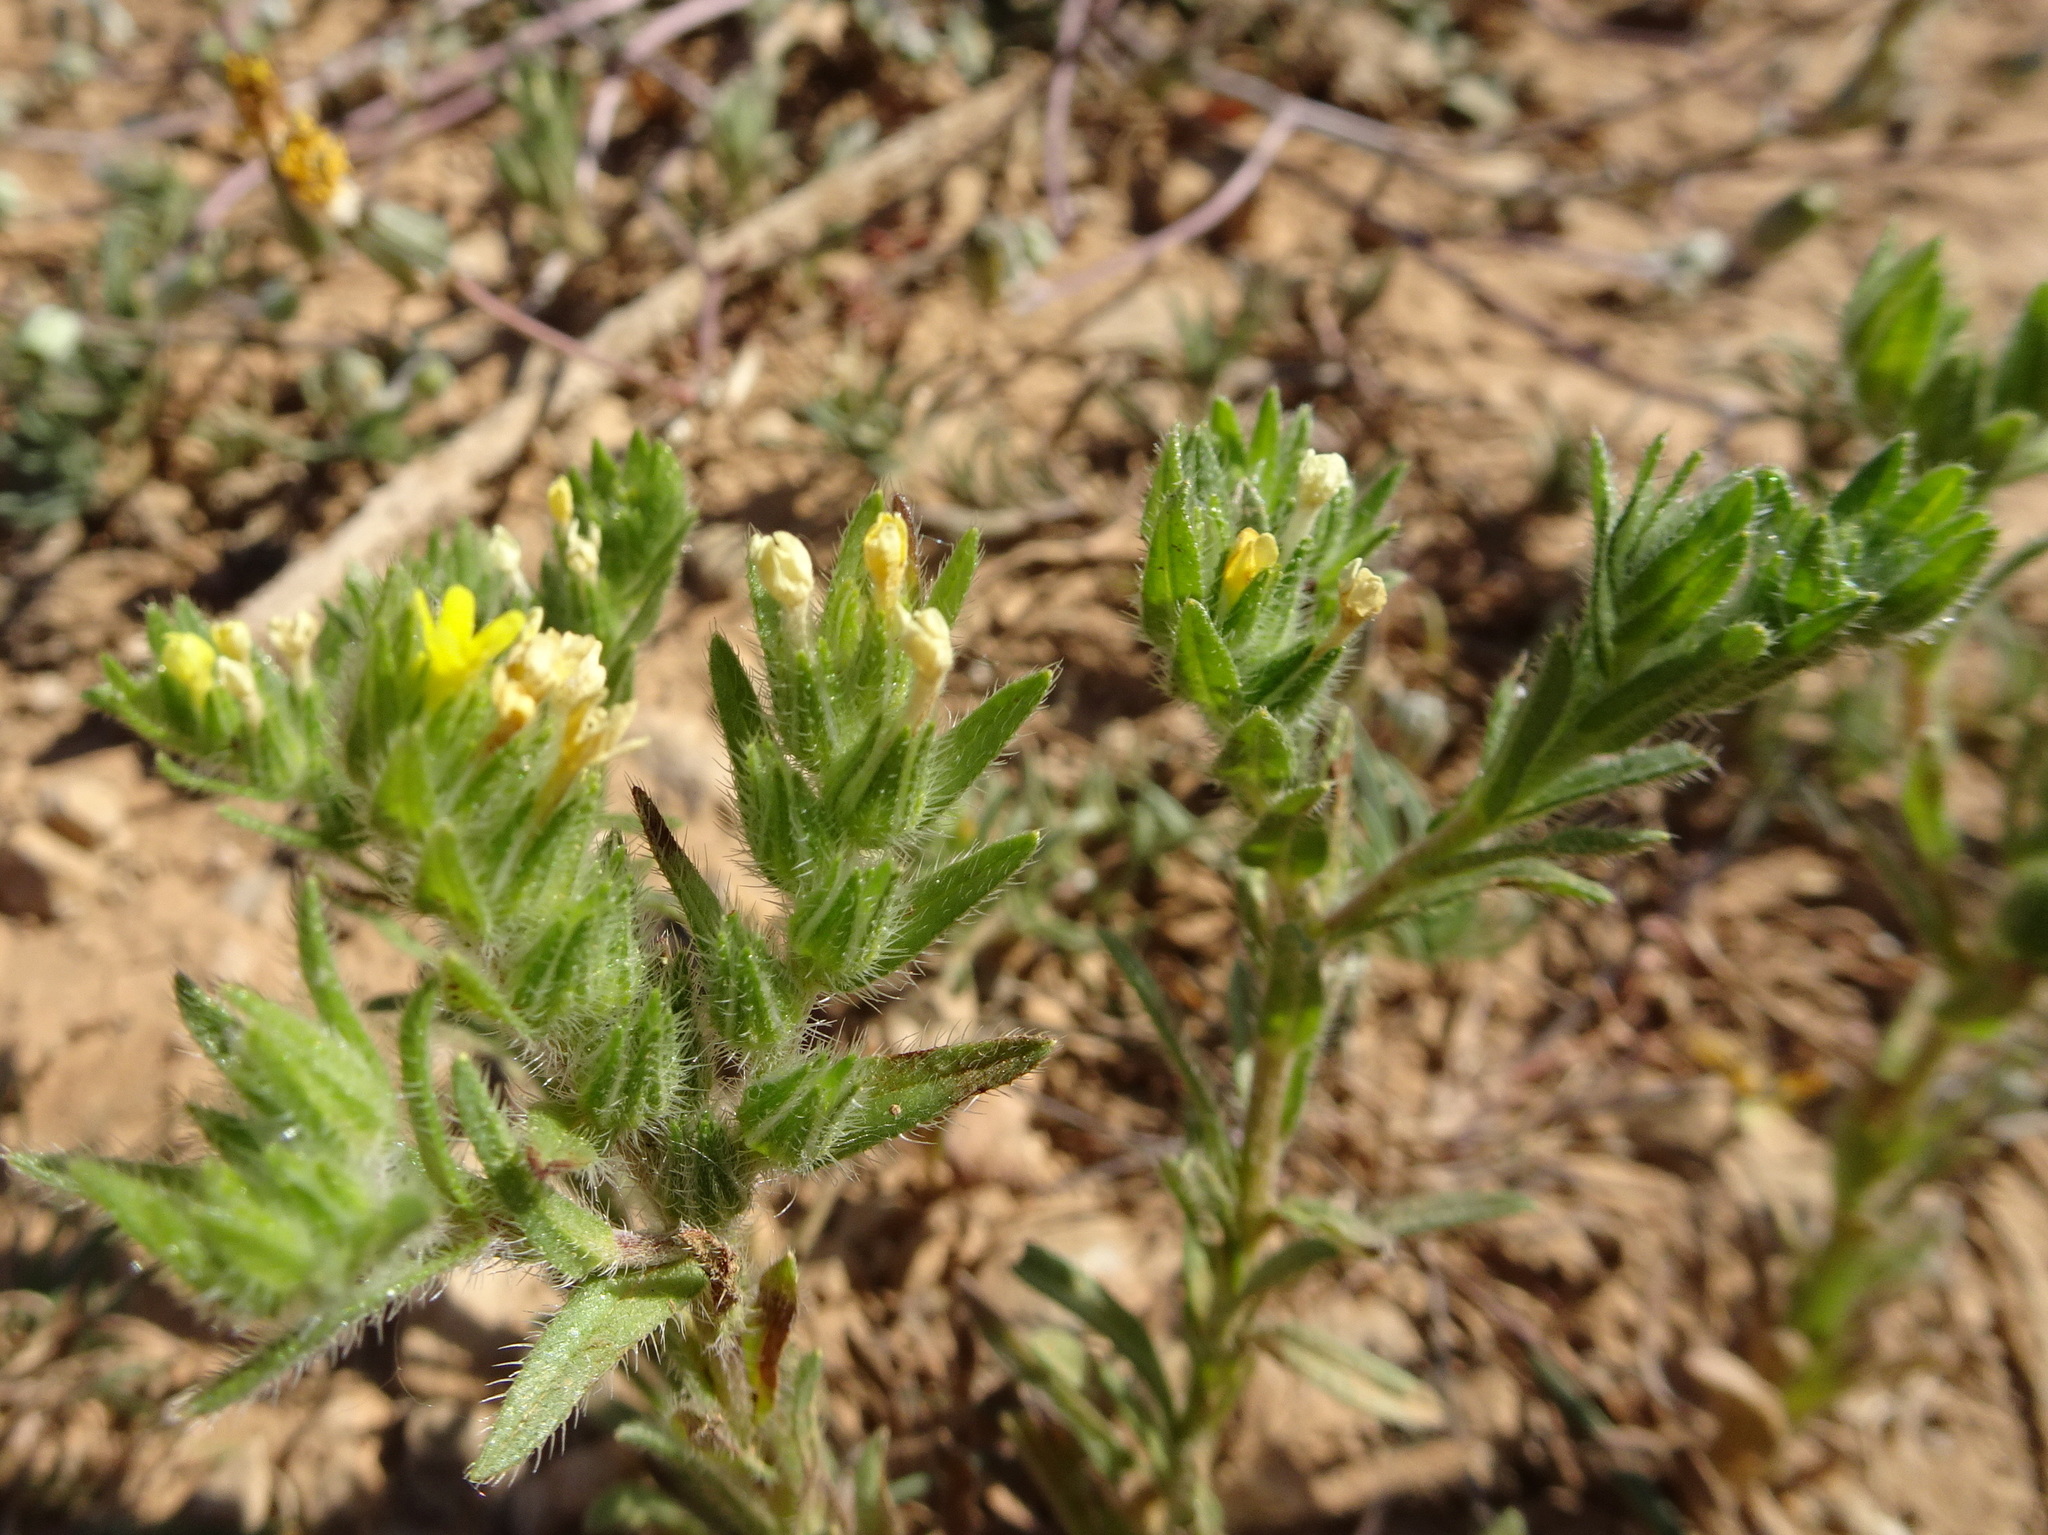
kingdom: Plantae
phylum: Tracheophyta
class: Magnoliopsida
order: Boraginales
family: Boraginaceae
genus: Neatostema
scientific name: Neatostema apulum
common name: Hairy sheepweed
